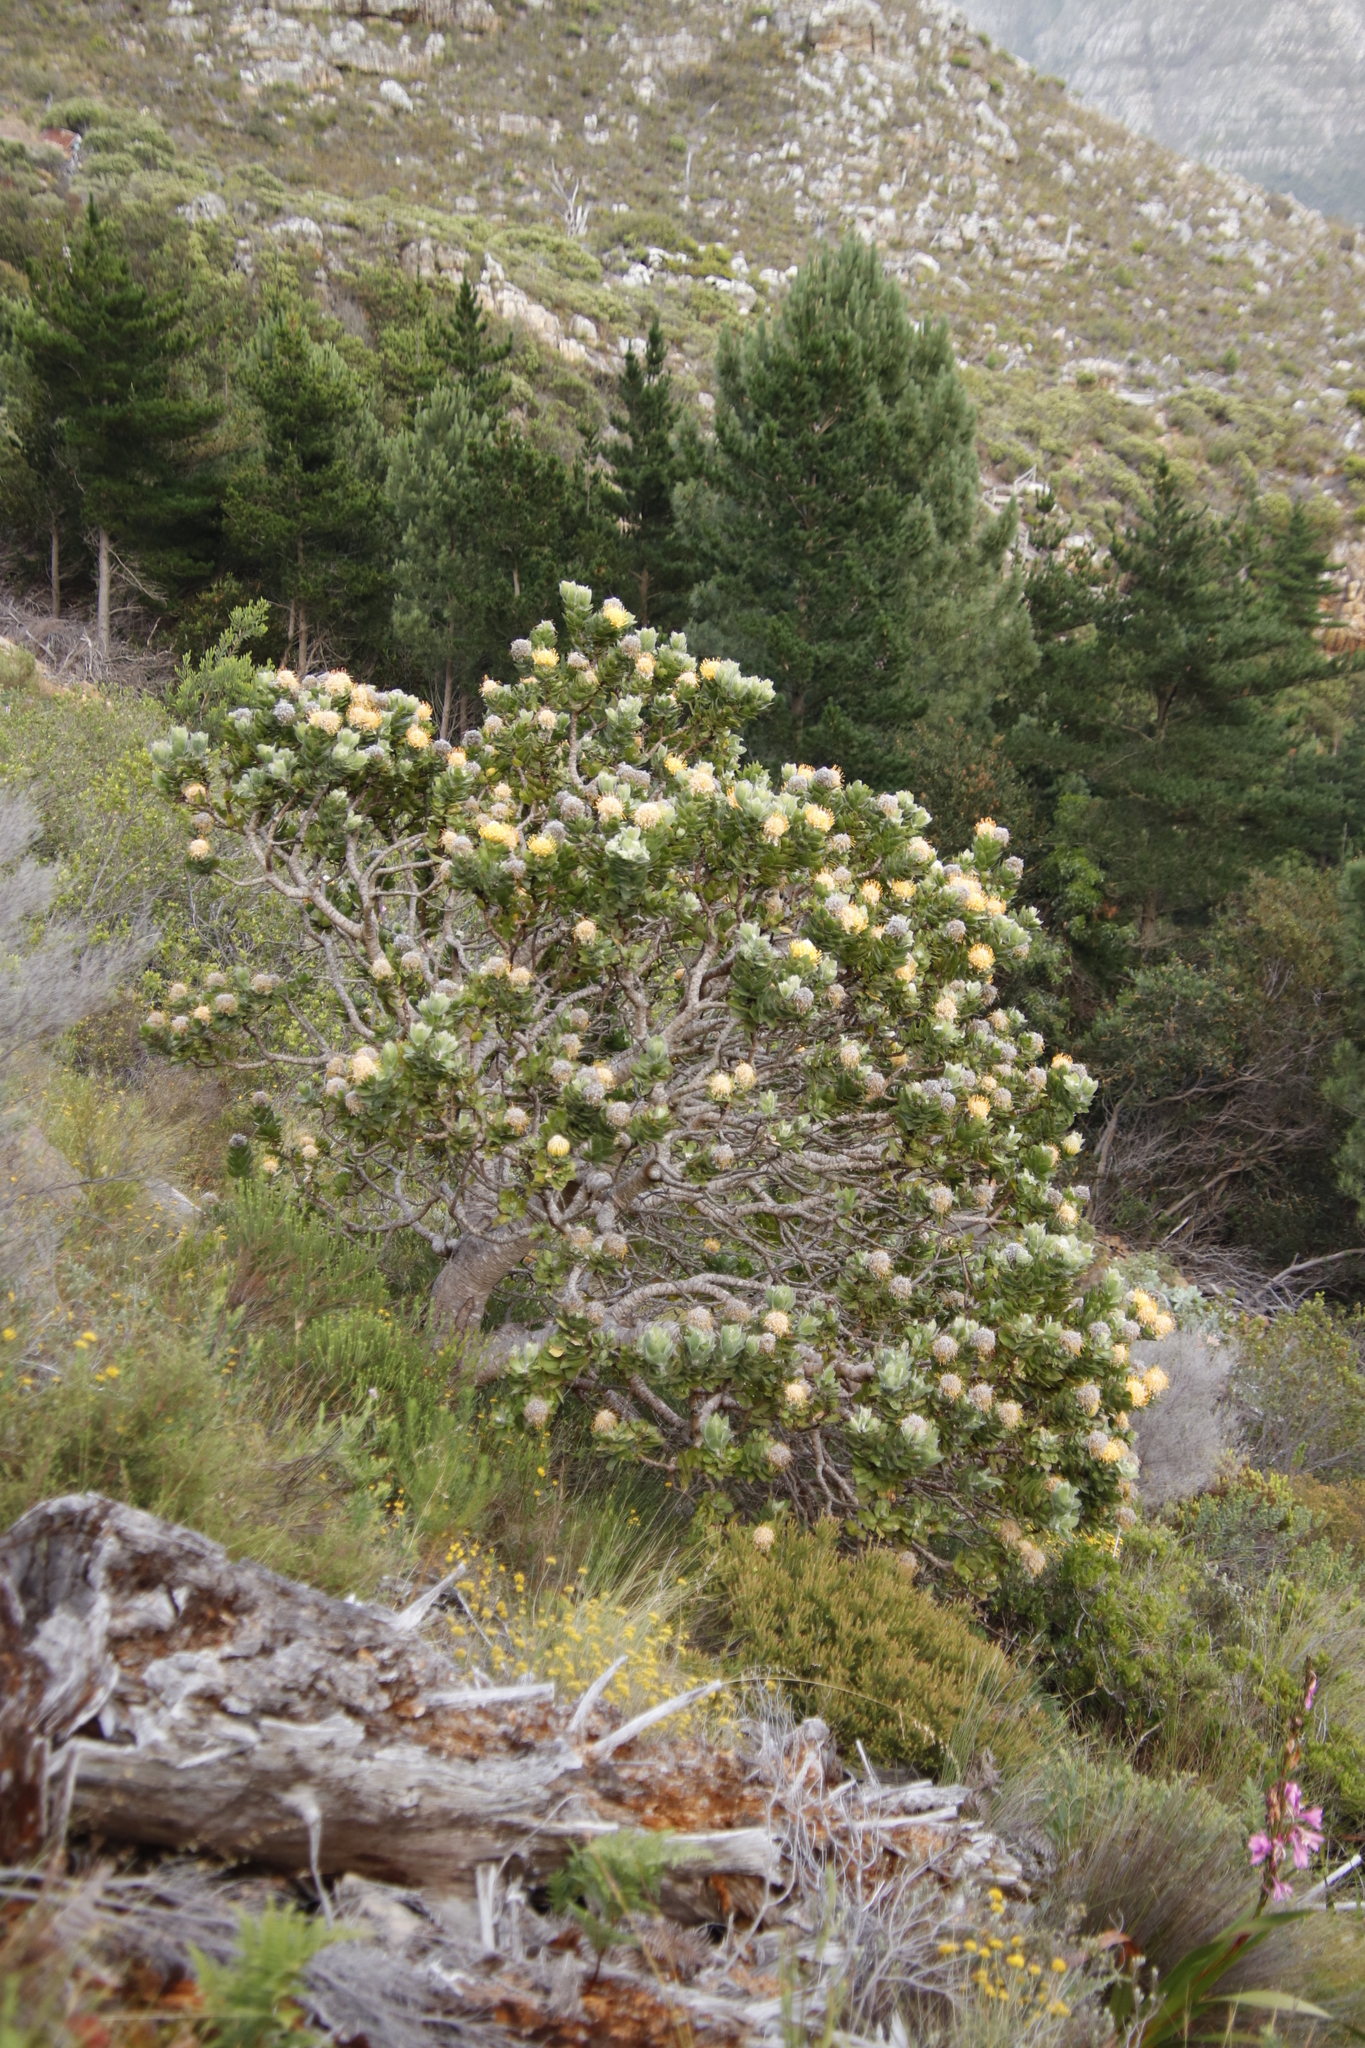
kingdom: Plantae
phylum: Tracheophyta
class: Magnoliopsida
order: Proteales
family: Proteaceae
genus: Leucospermum
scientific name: Leucospermum conocarpodendron
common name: Tree pincushion
